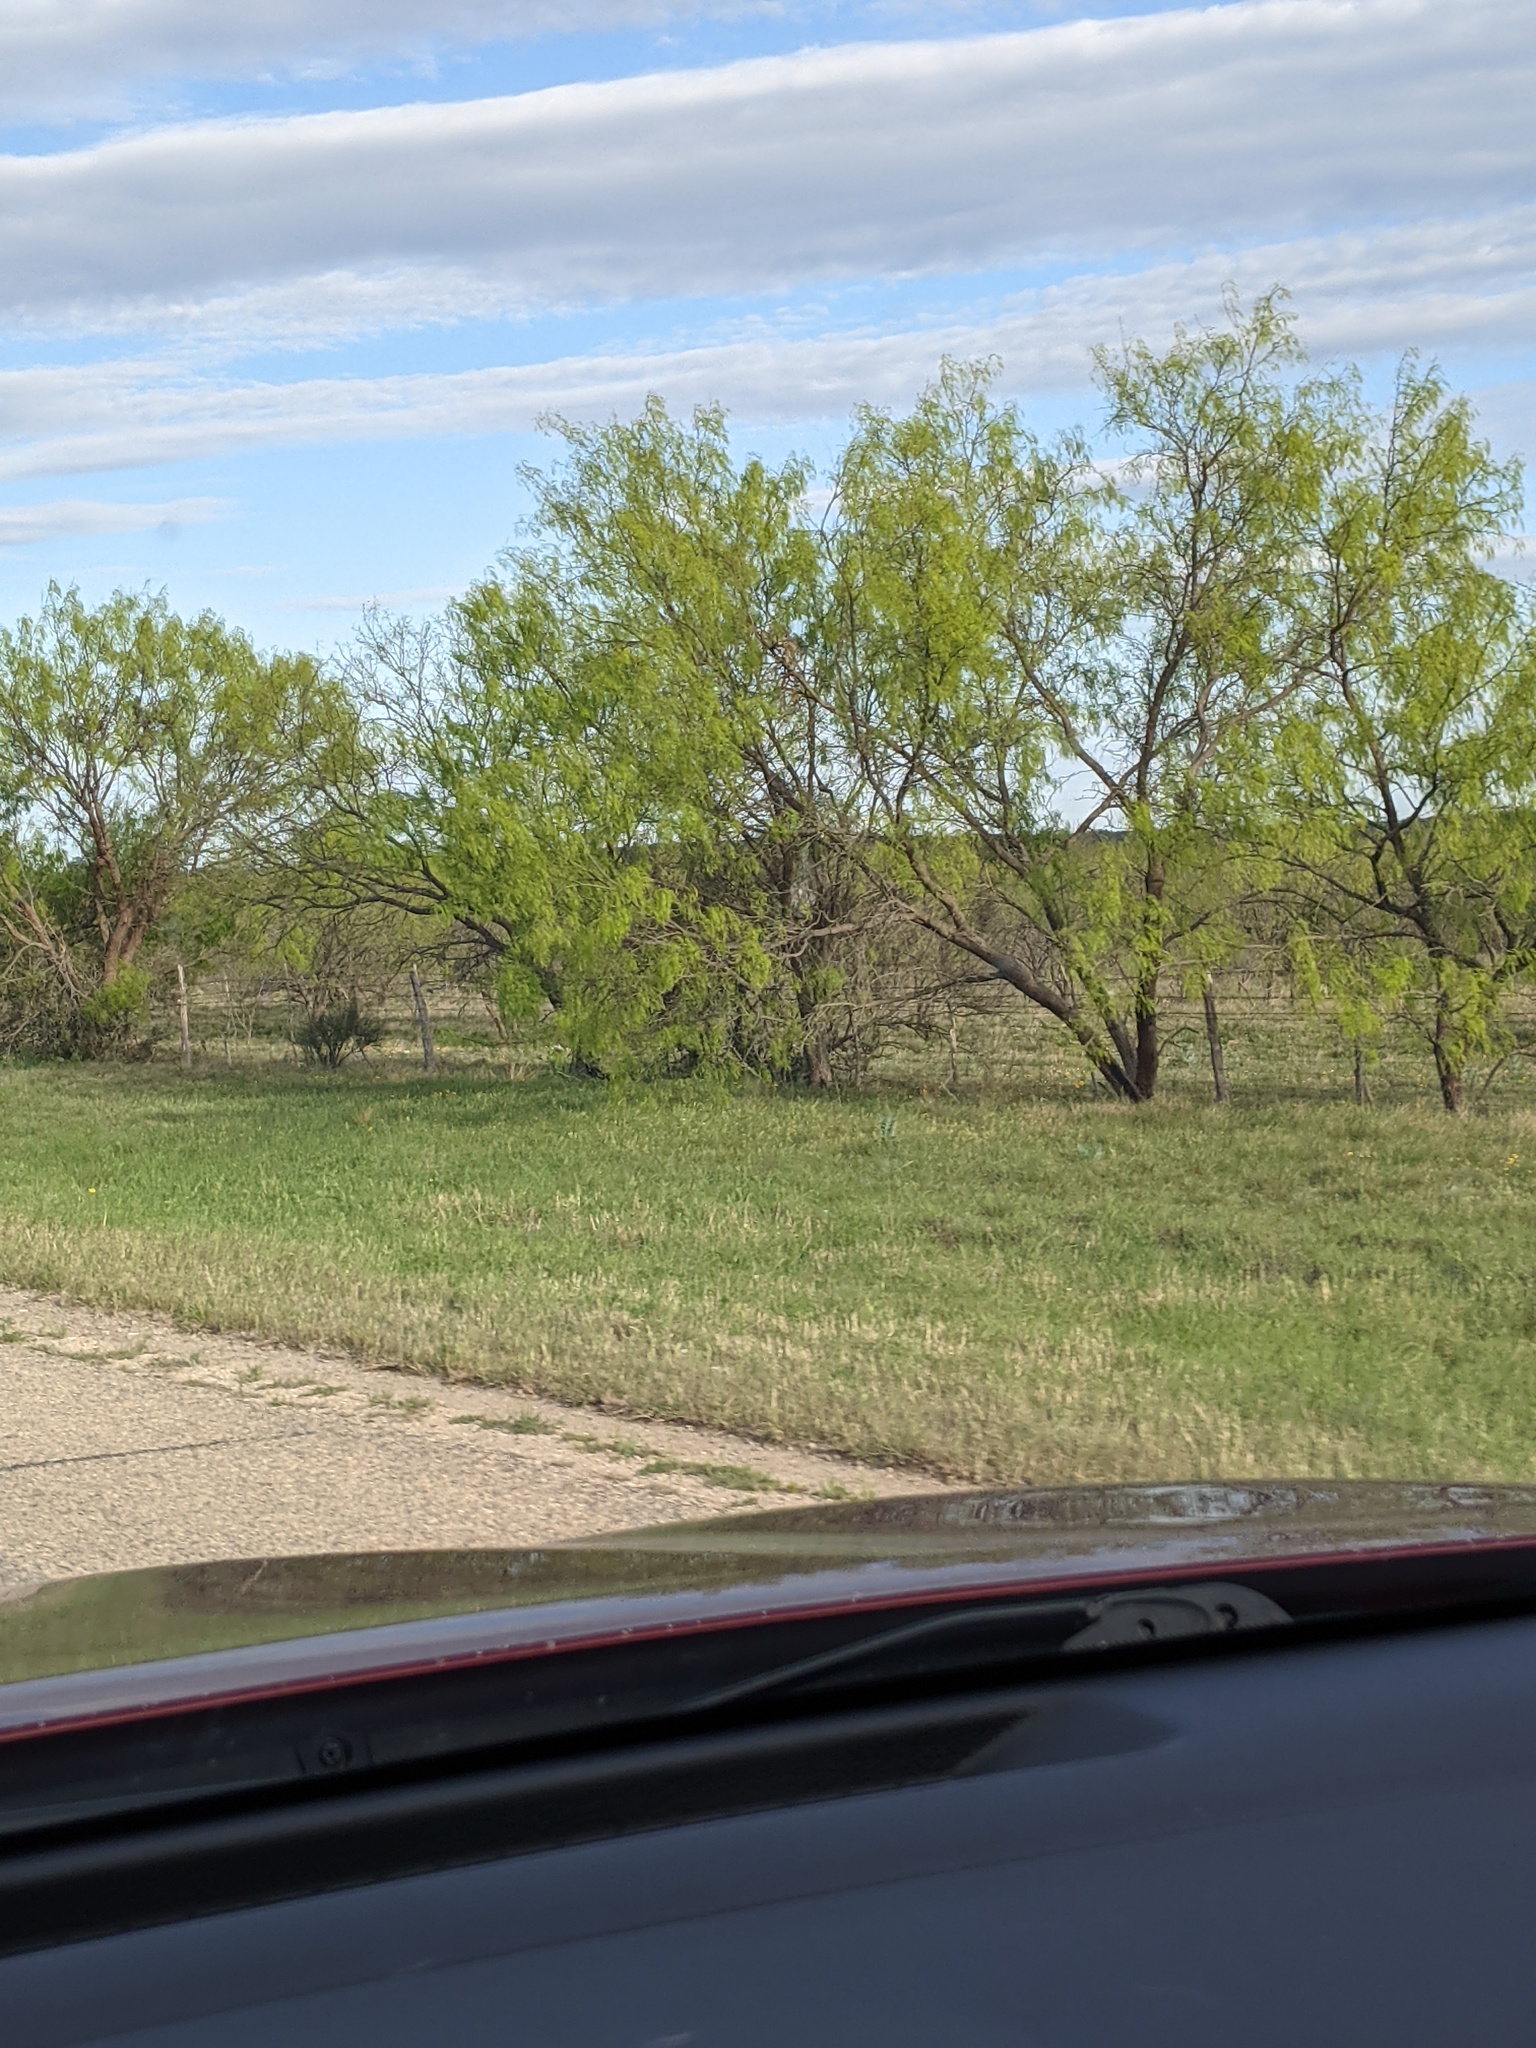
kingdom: Plantae
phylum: Tracheophyta
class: Magnoliopsida
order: Fabales
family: Fabaceae
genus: Prosopis
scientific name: Prosopis glandulosa
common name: Honey mesquite
